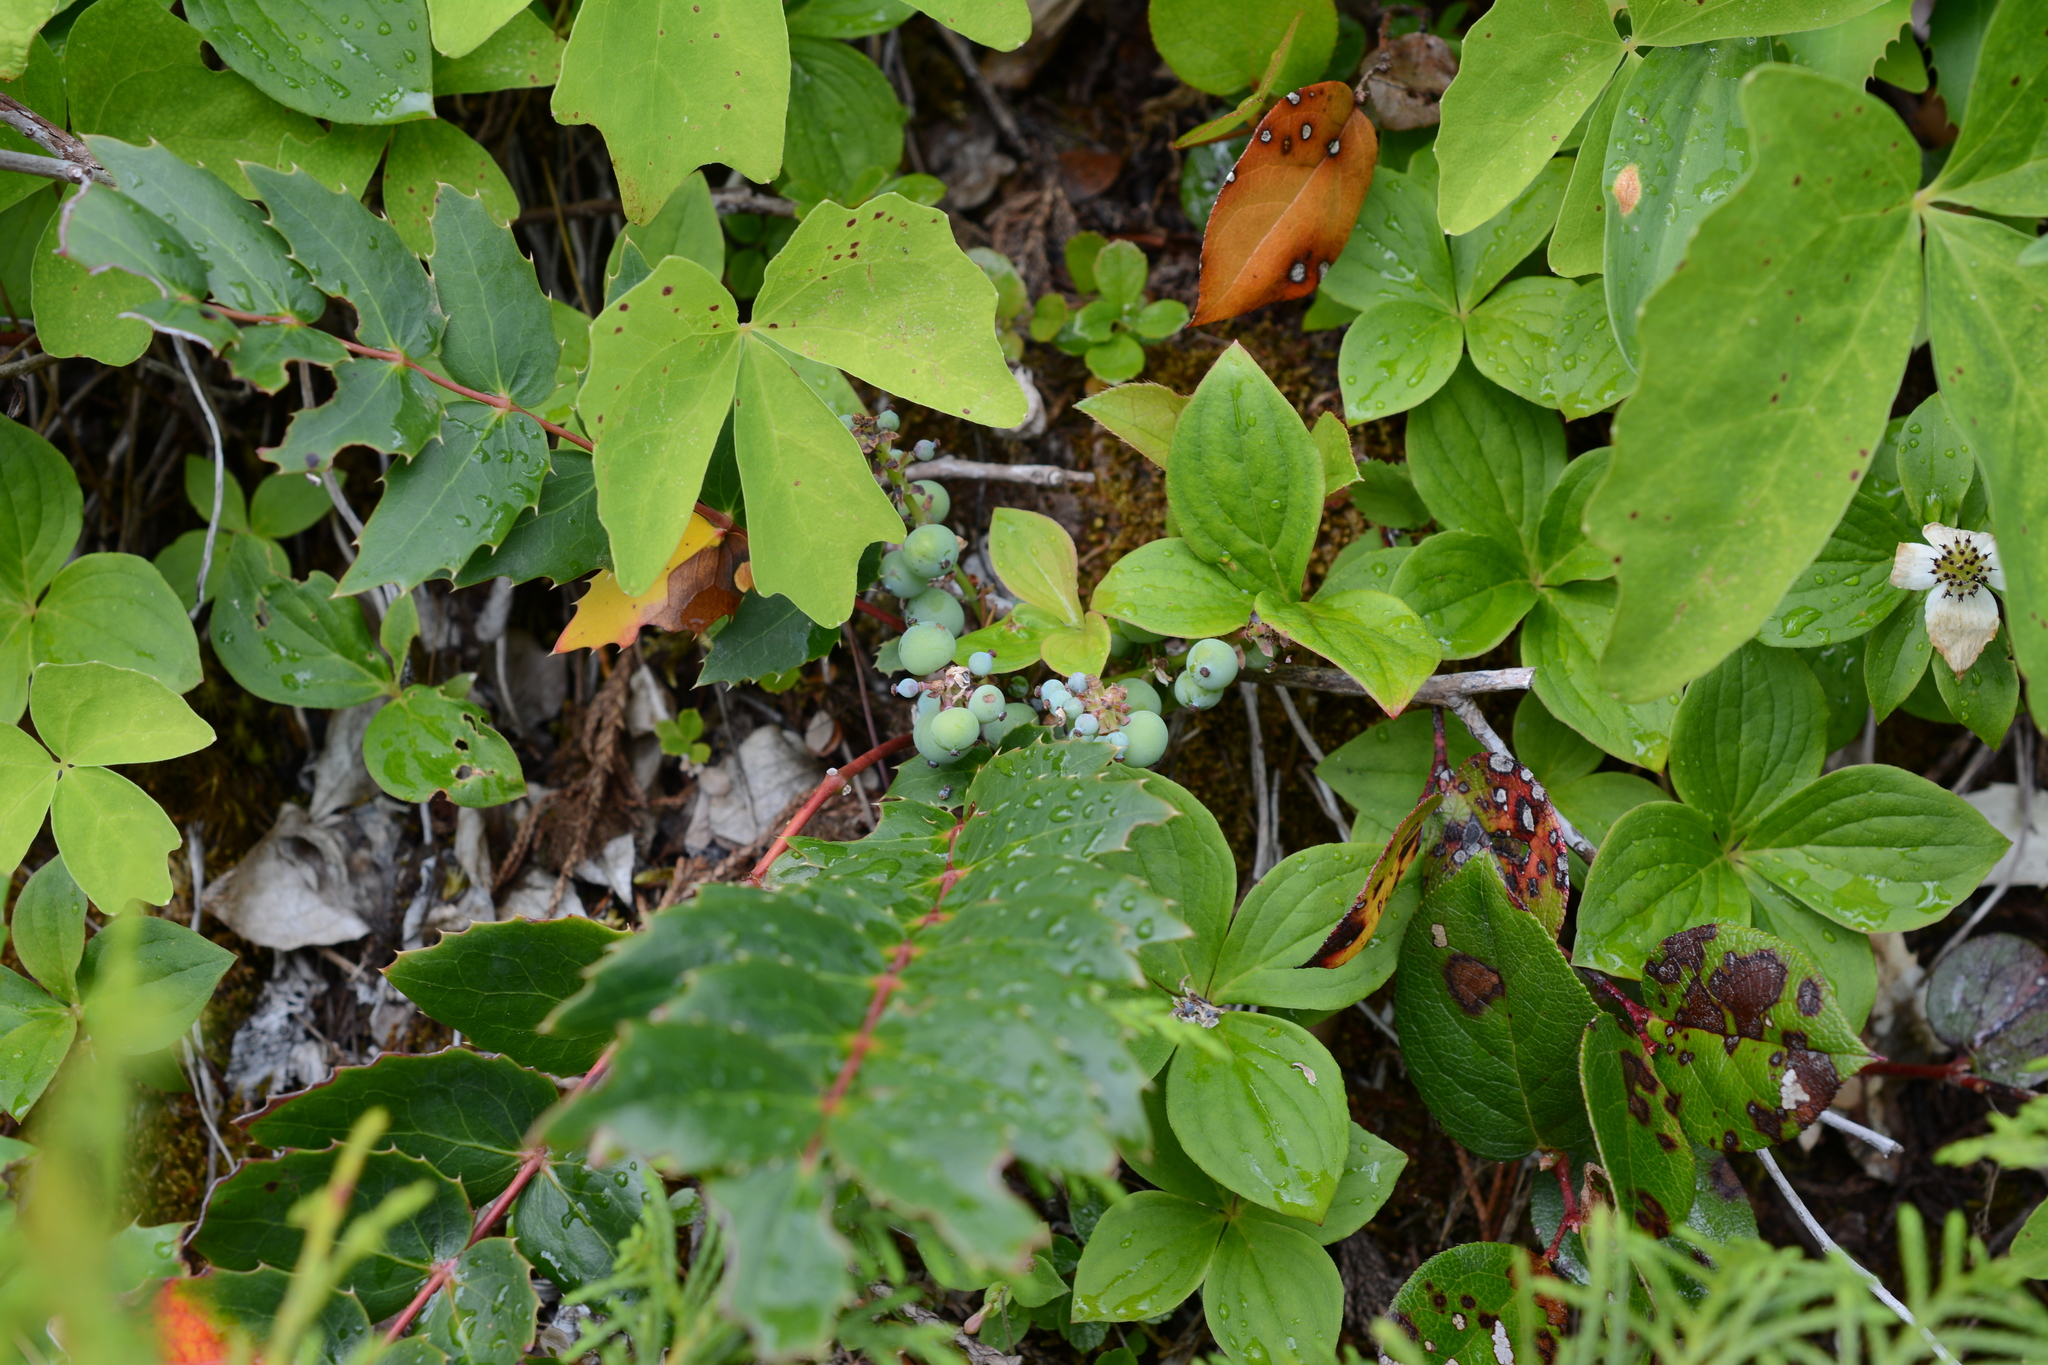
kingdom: Plantae
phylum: Tracheophyta
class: Magnoliopsida
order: Ranunculales
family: Berberidaceae
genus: Mahonia
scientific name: Mahonia nervosa
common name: Cascade oregon-grape
